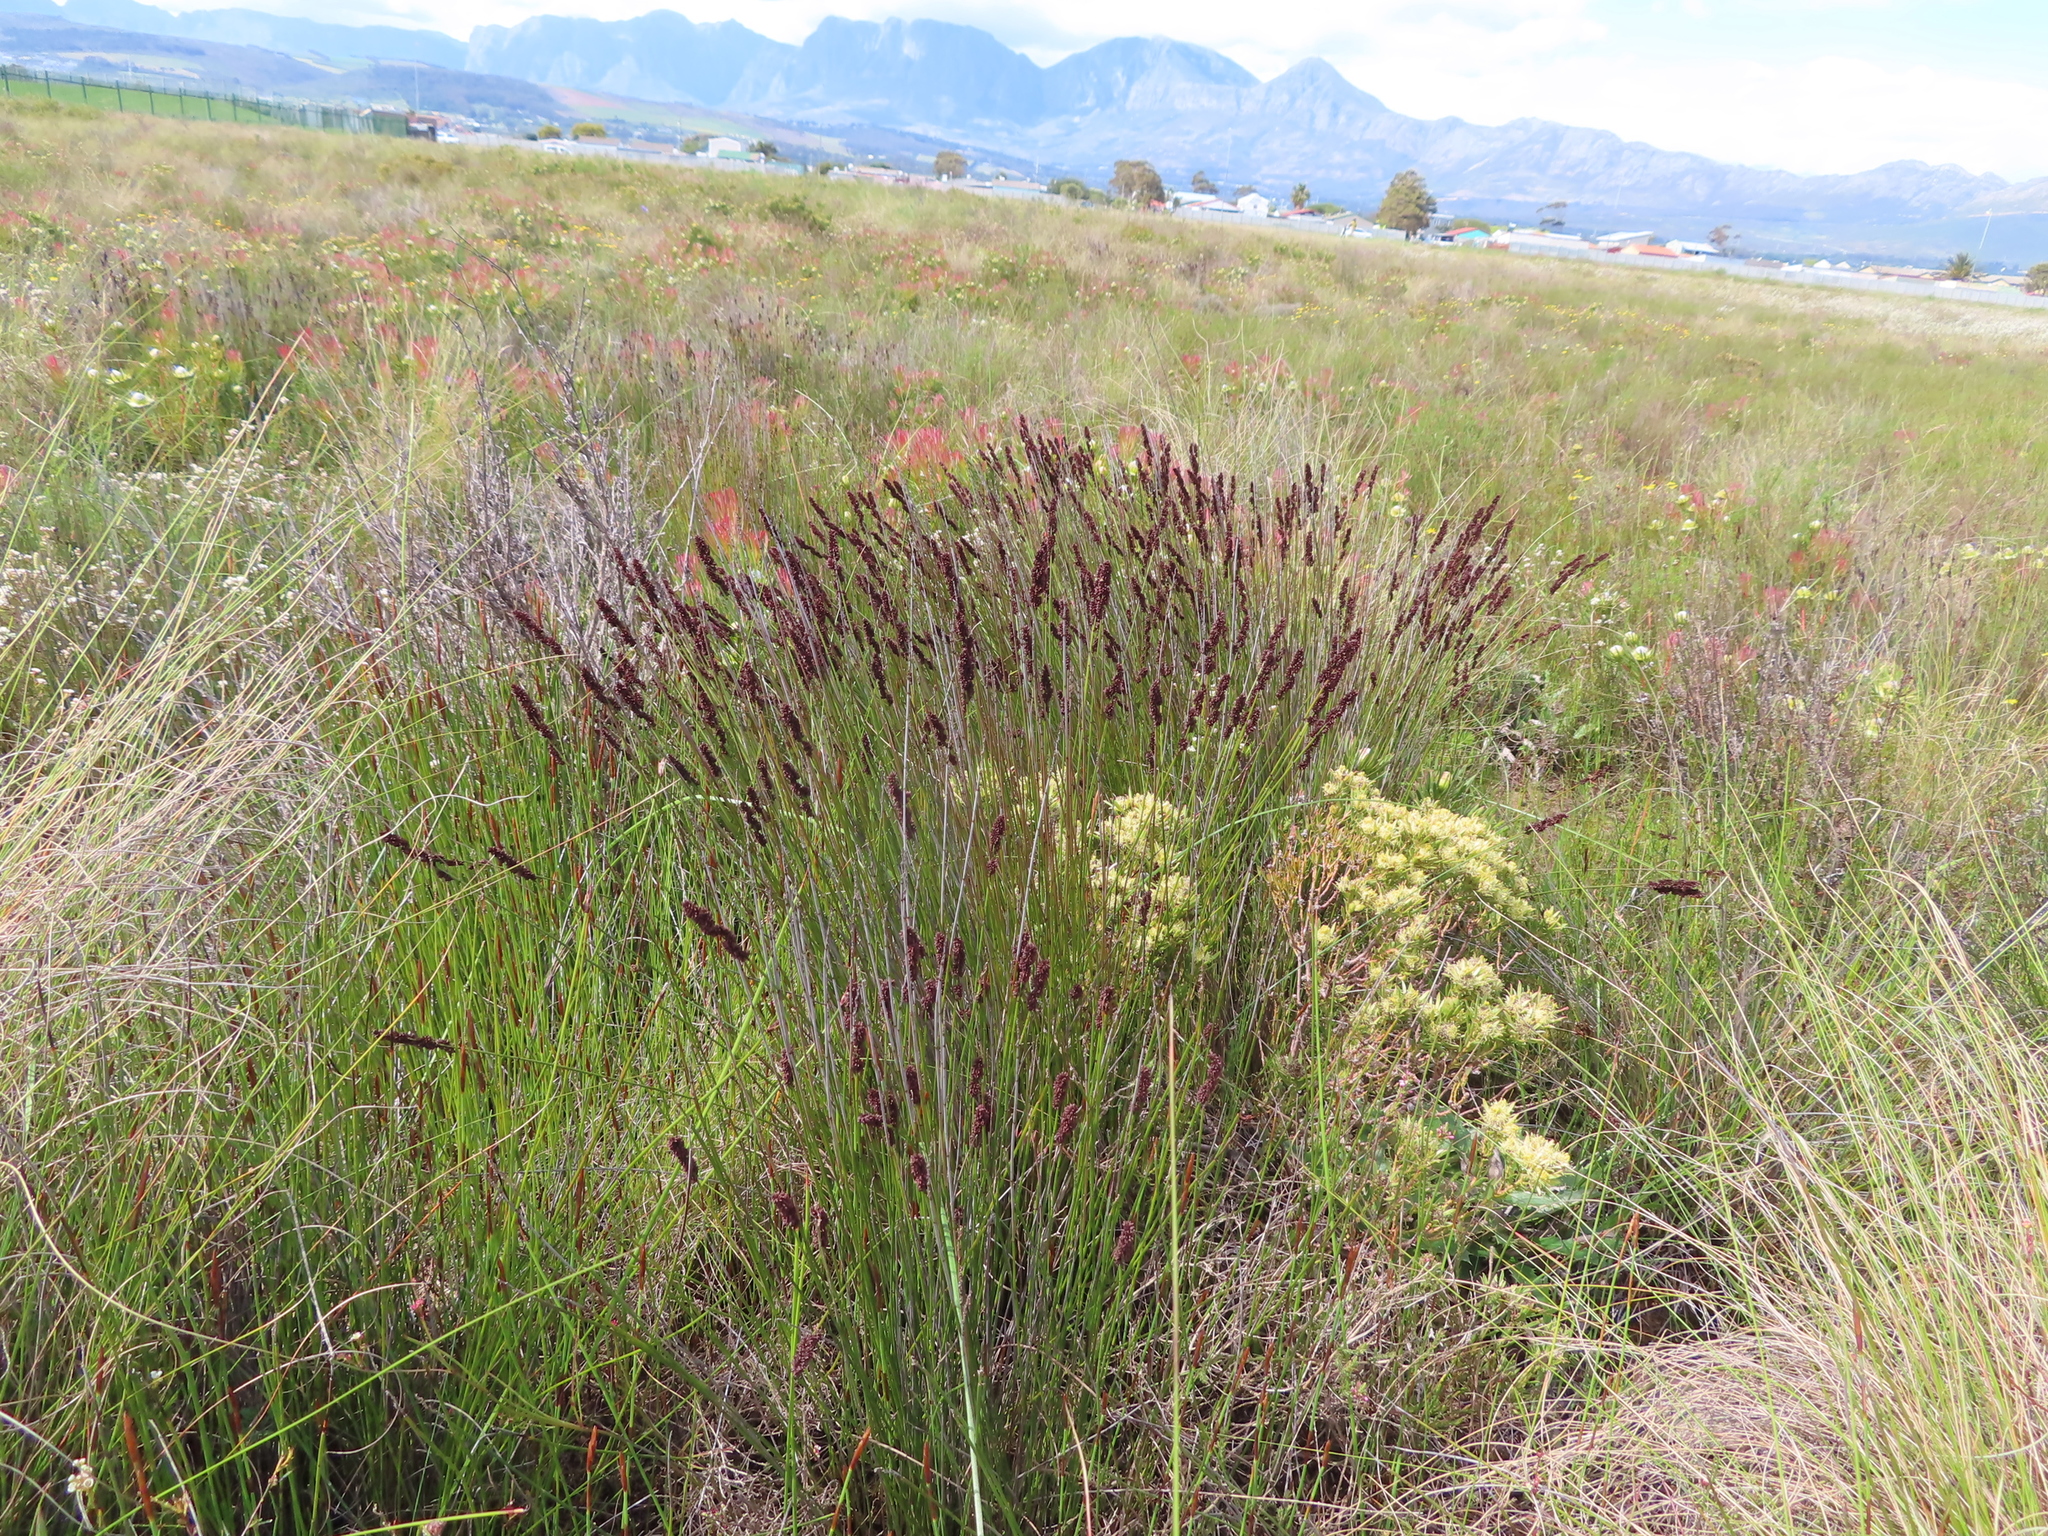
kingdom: Plantae
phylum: Tracheophyta
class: Liliopsida
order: Poales
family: Restionaceae
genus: Elegia
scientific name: Elegia nuda
